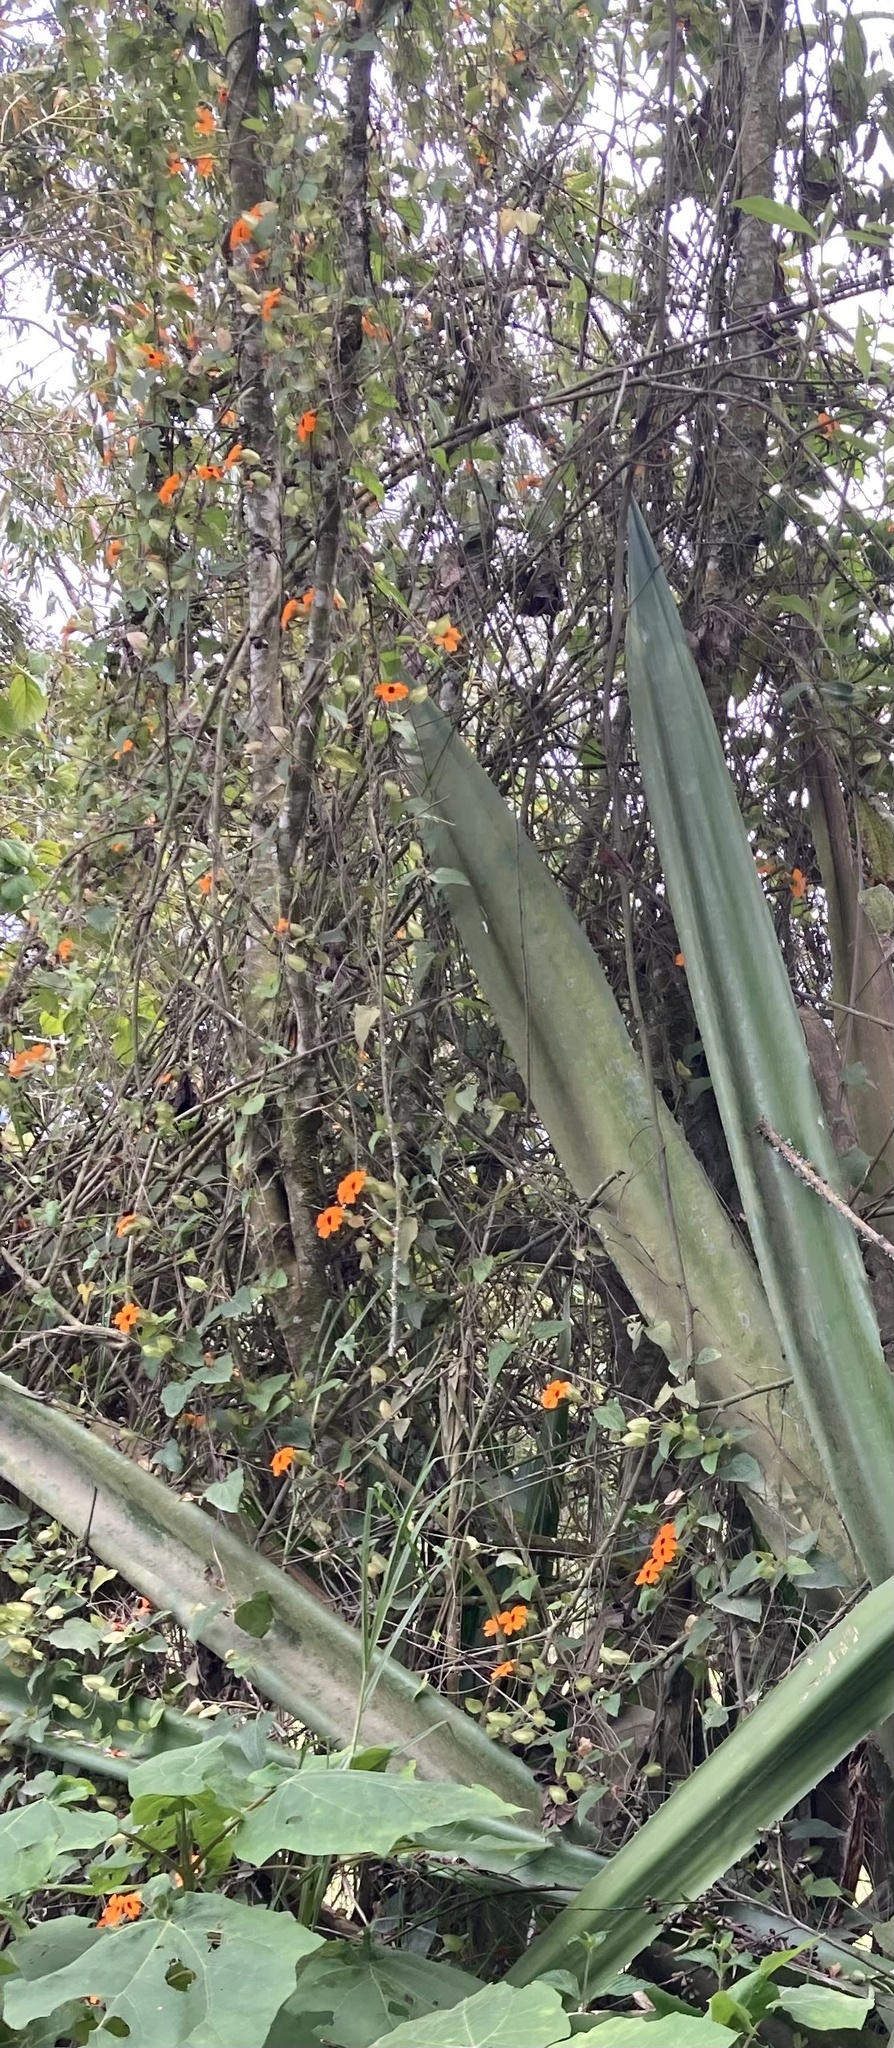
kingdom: Plantae
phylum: Tracheophyta
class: Magnoliopsida
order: Lamiales
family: Acanthaceae
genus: Thunbergia
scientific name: Thunbergia alata
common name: Blackeyed susan vine
